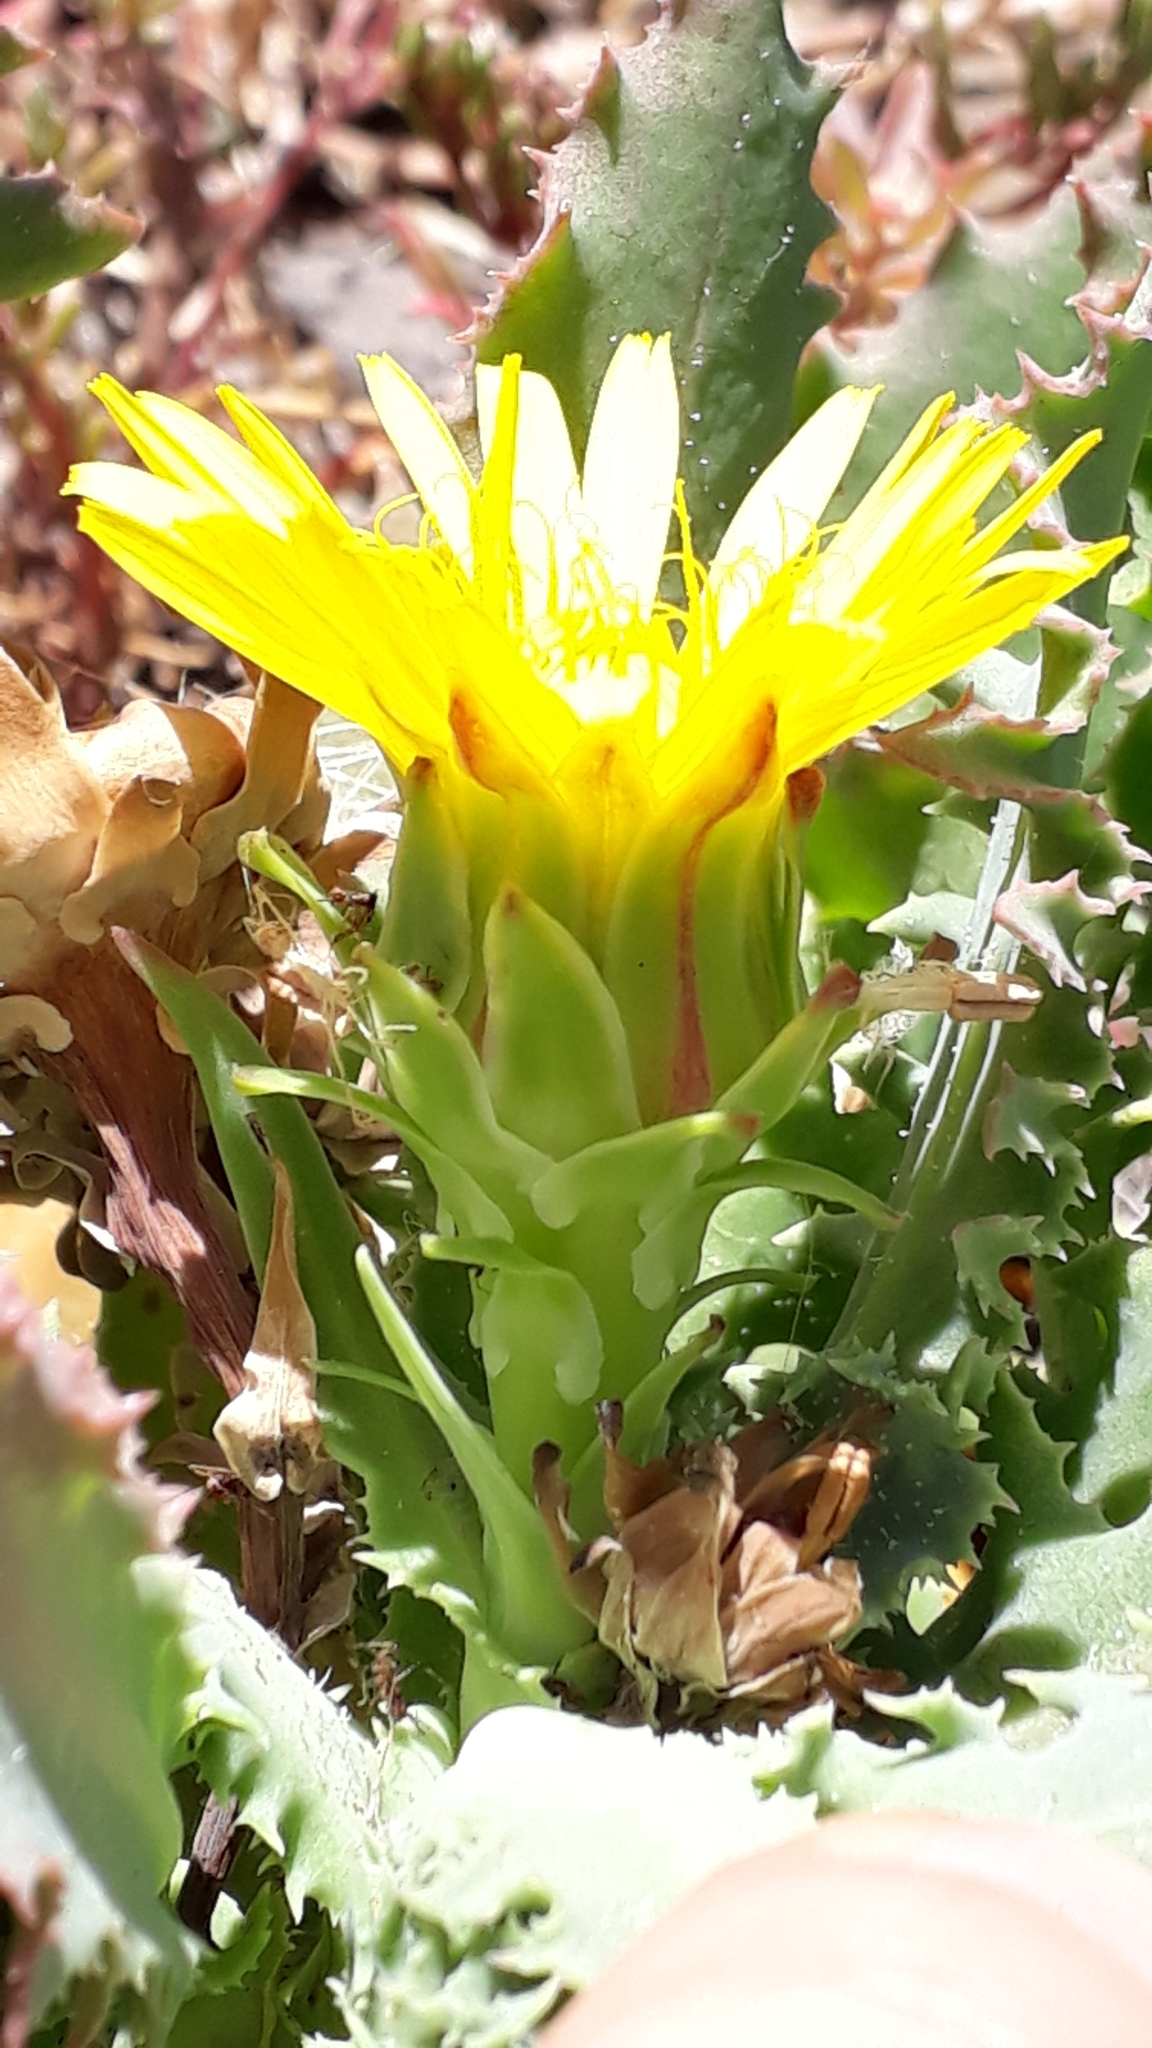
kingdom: Plantae
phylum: Tracheophyta
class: Magnoliopsida
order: Asterales
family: Asteraceae
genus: Reichardia
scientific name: Reichardia ligulata
